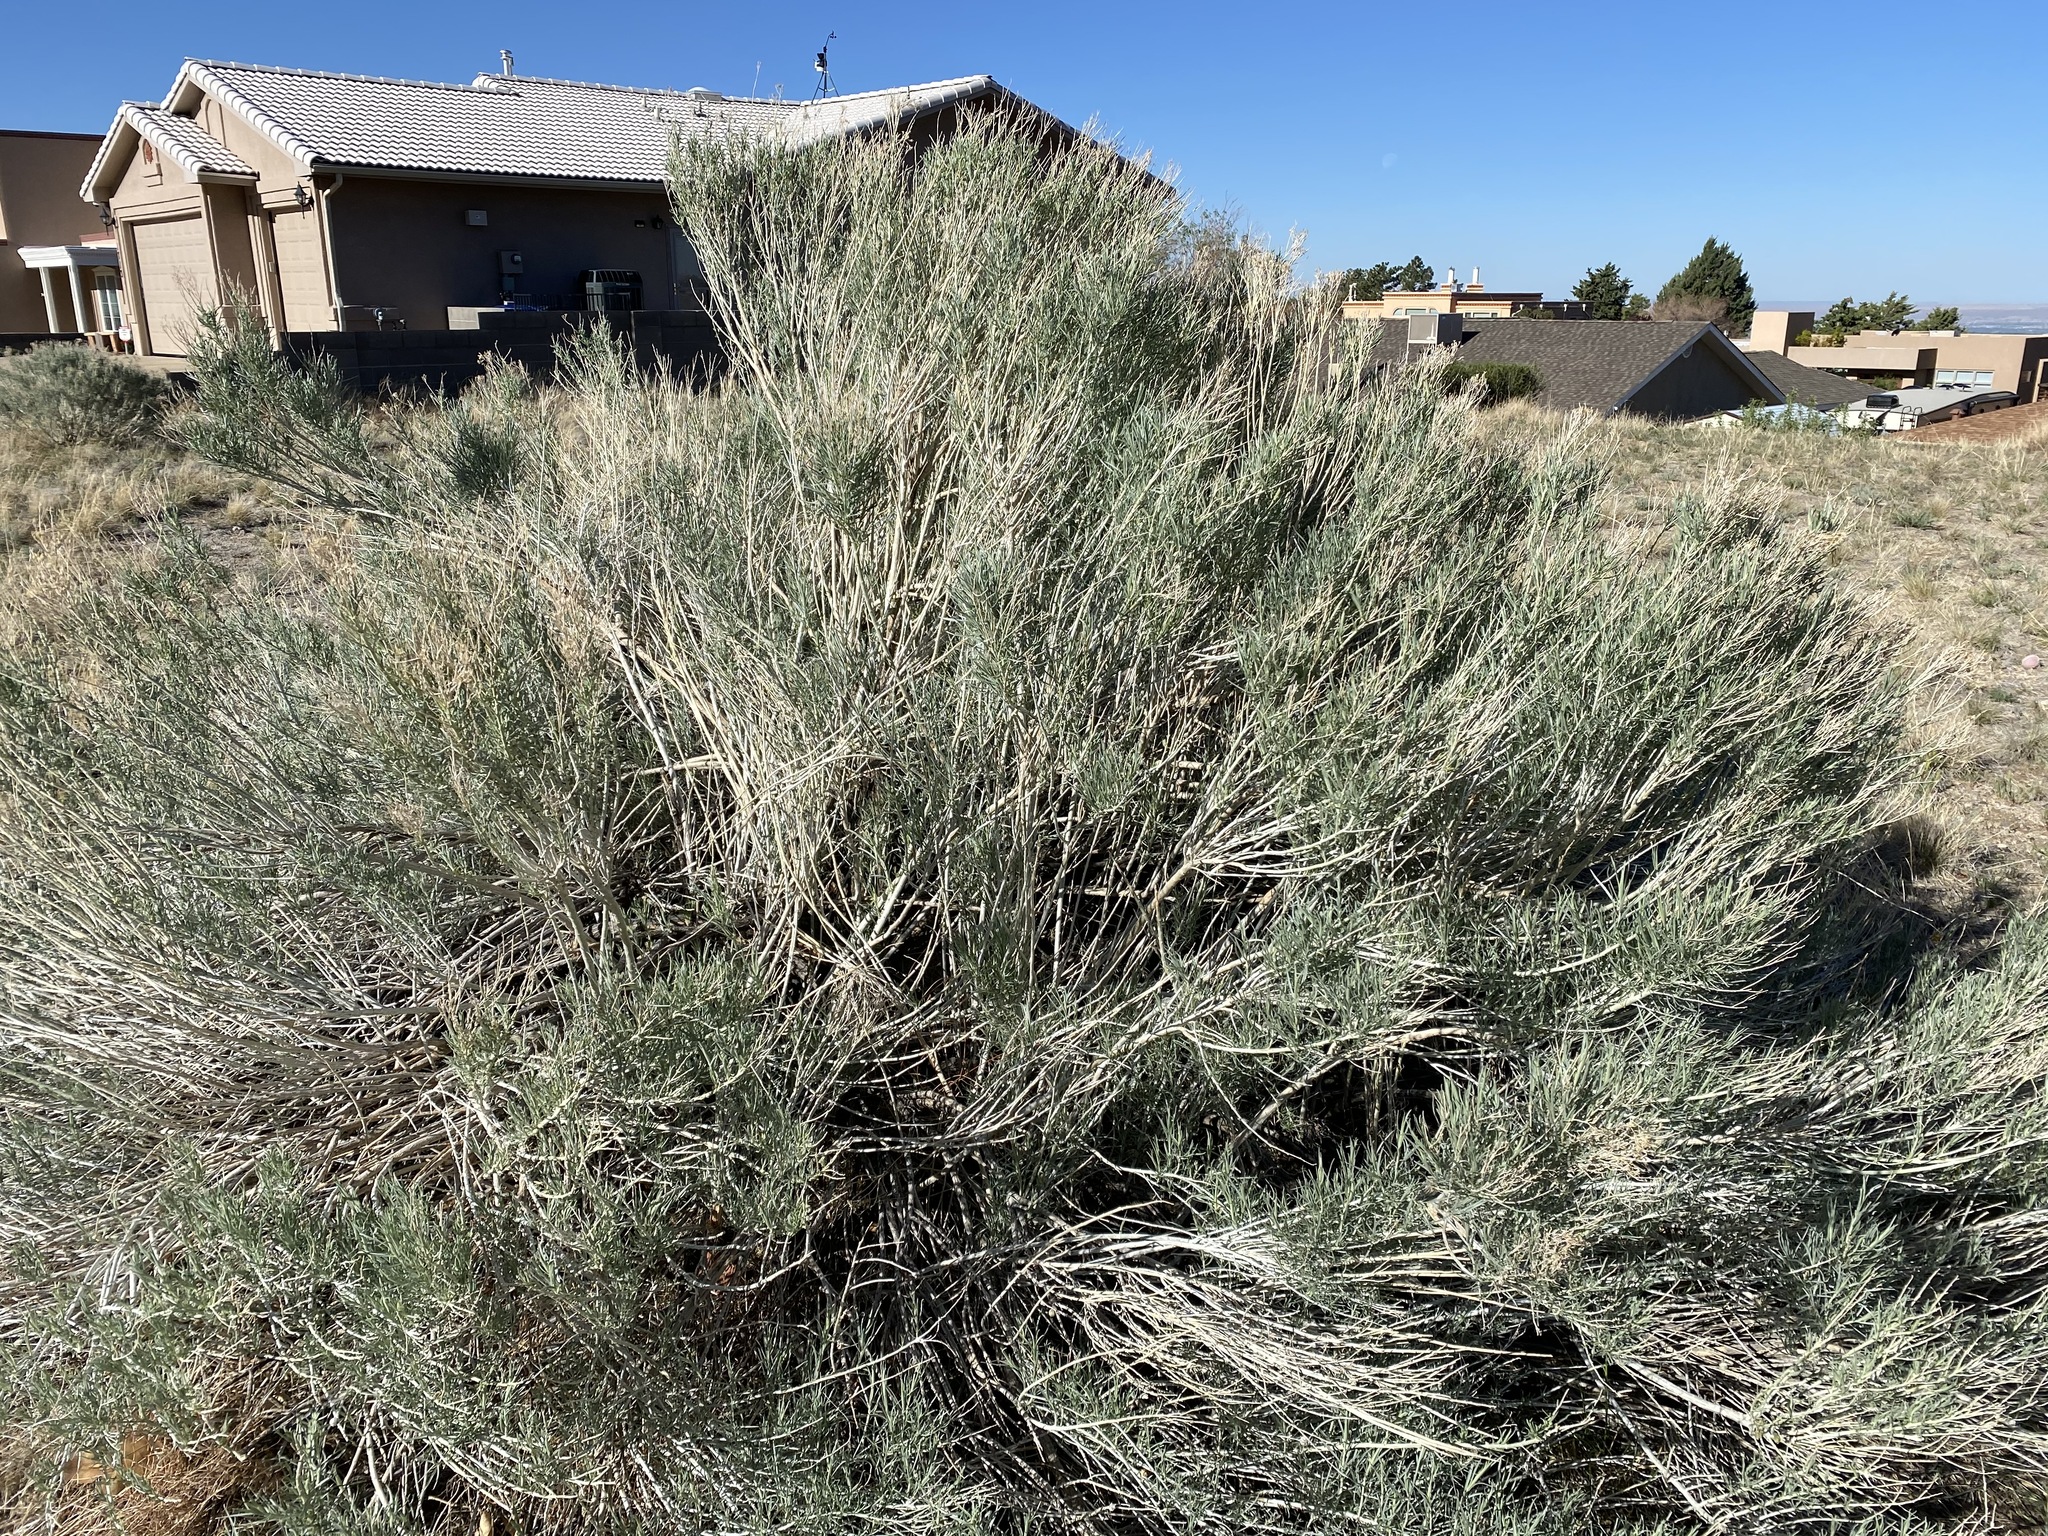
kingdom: Plantae
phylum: Tracheophyta
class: Magnoliopsida
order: Asterales
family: Asteraceae
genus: Ericameria
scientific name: Ericameria nauseosa
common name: Rubber rabbitbrush
